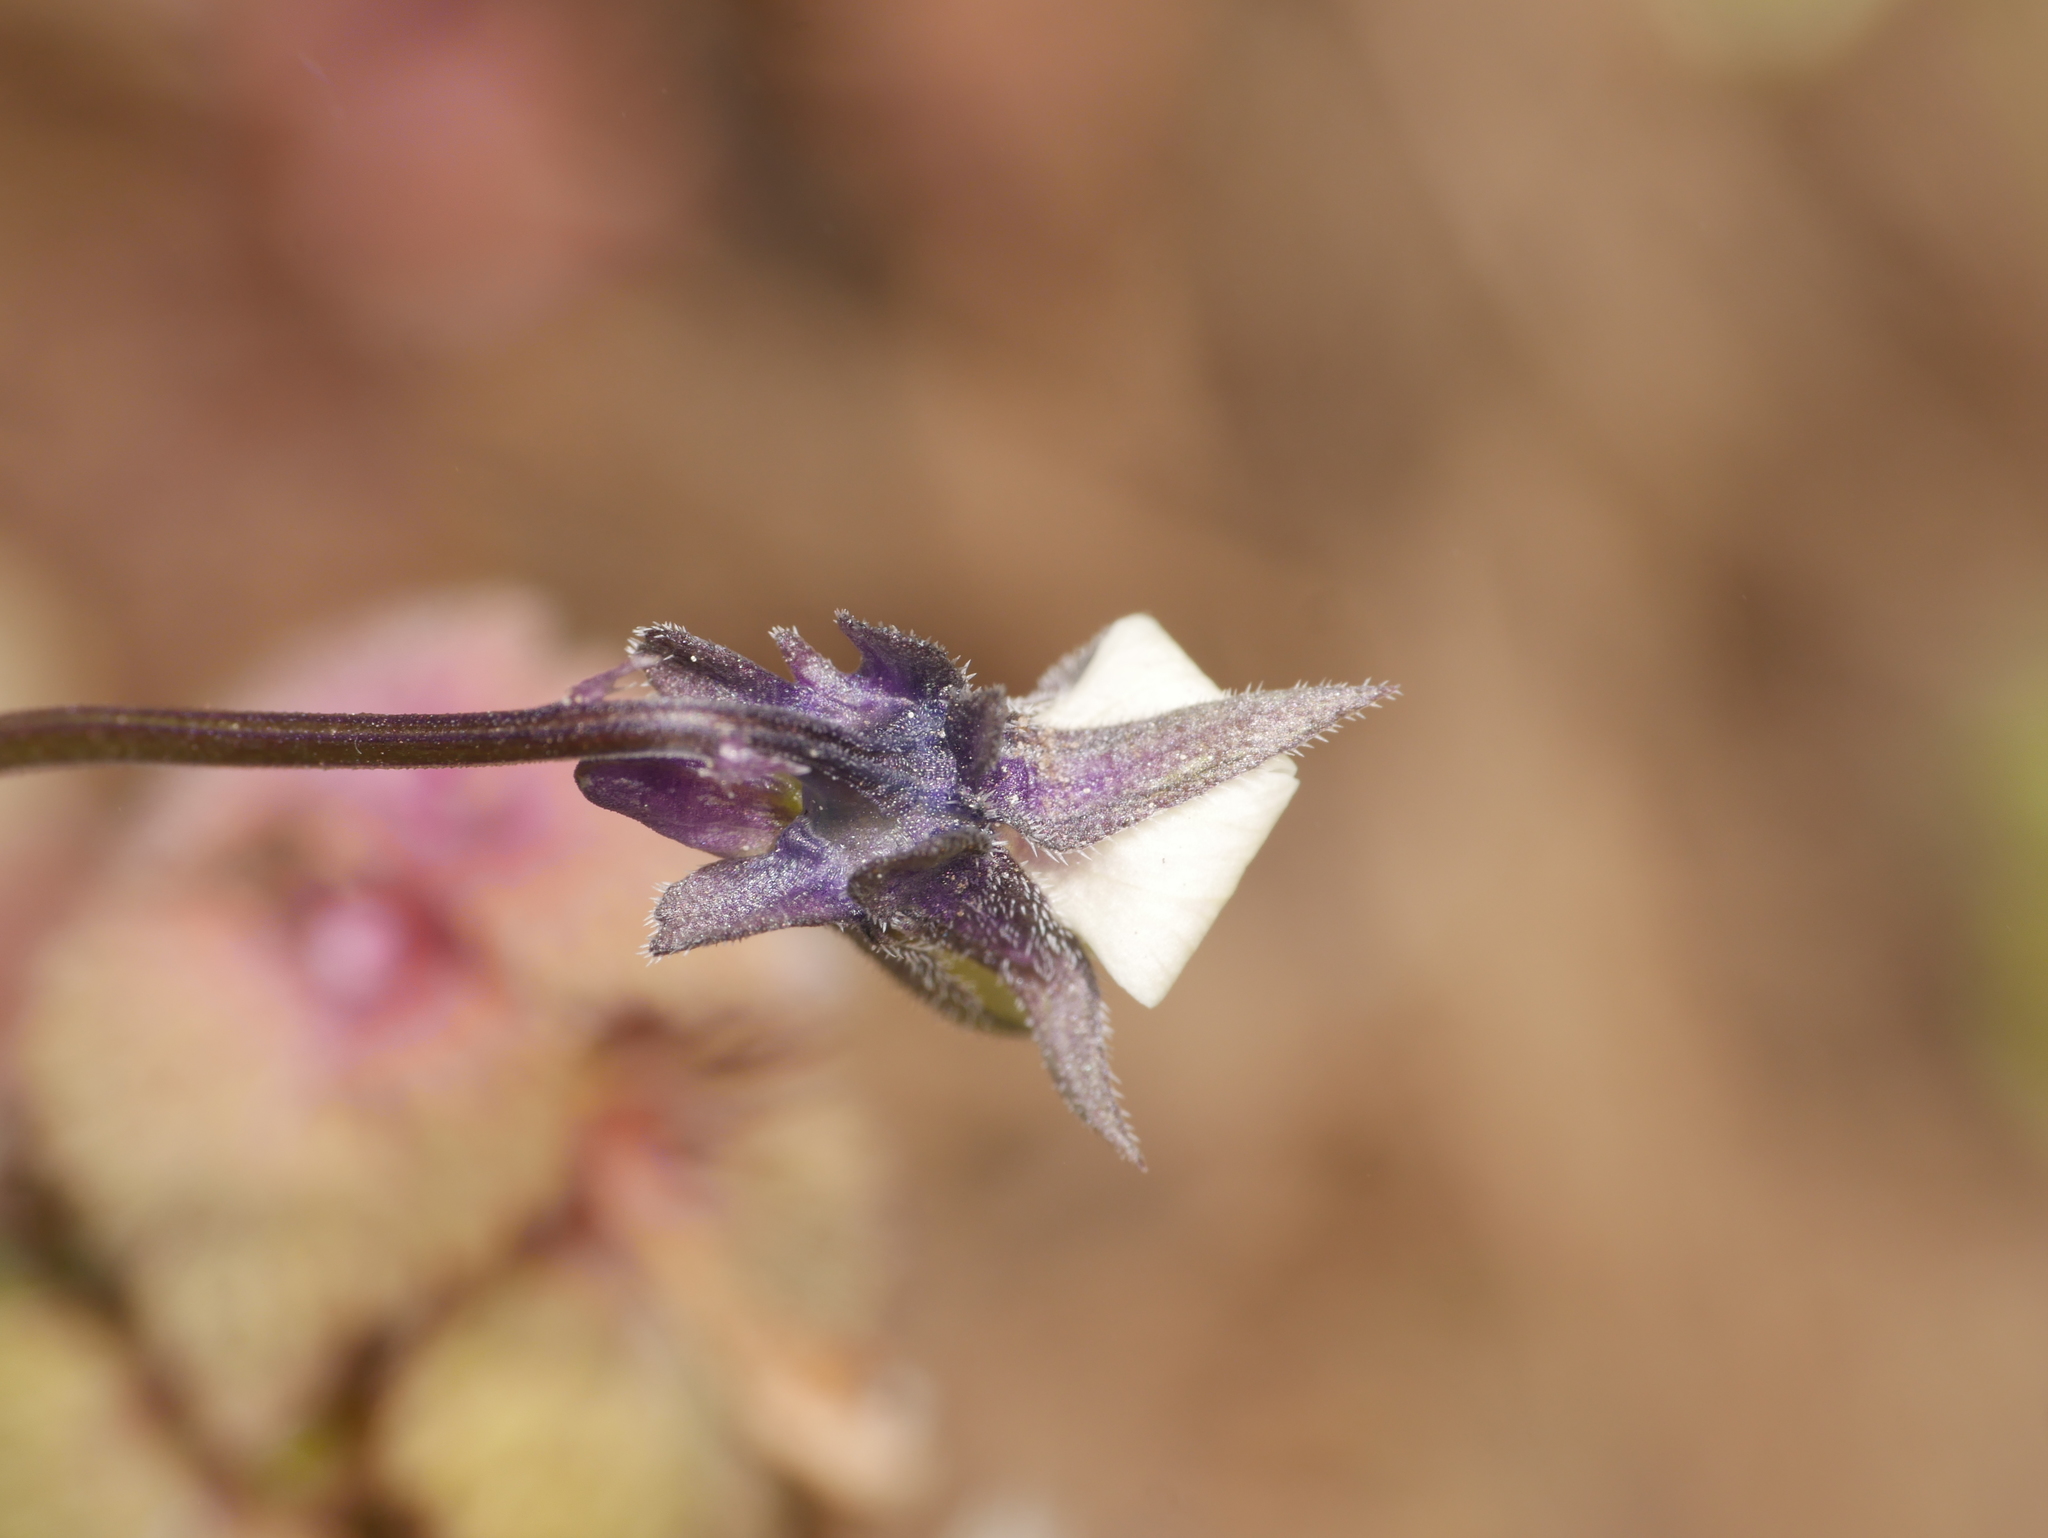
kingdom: Plantae
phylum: Tracheophyta
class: Magnoliopsida
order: Malpighiales
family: Violaceae
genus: Viola
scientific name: Viola arvensis
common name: Field pansy
